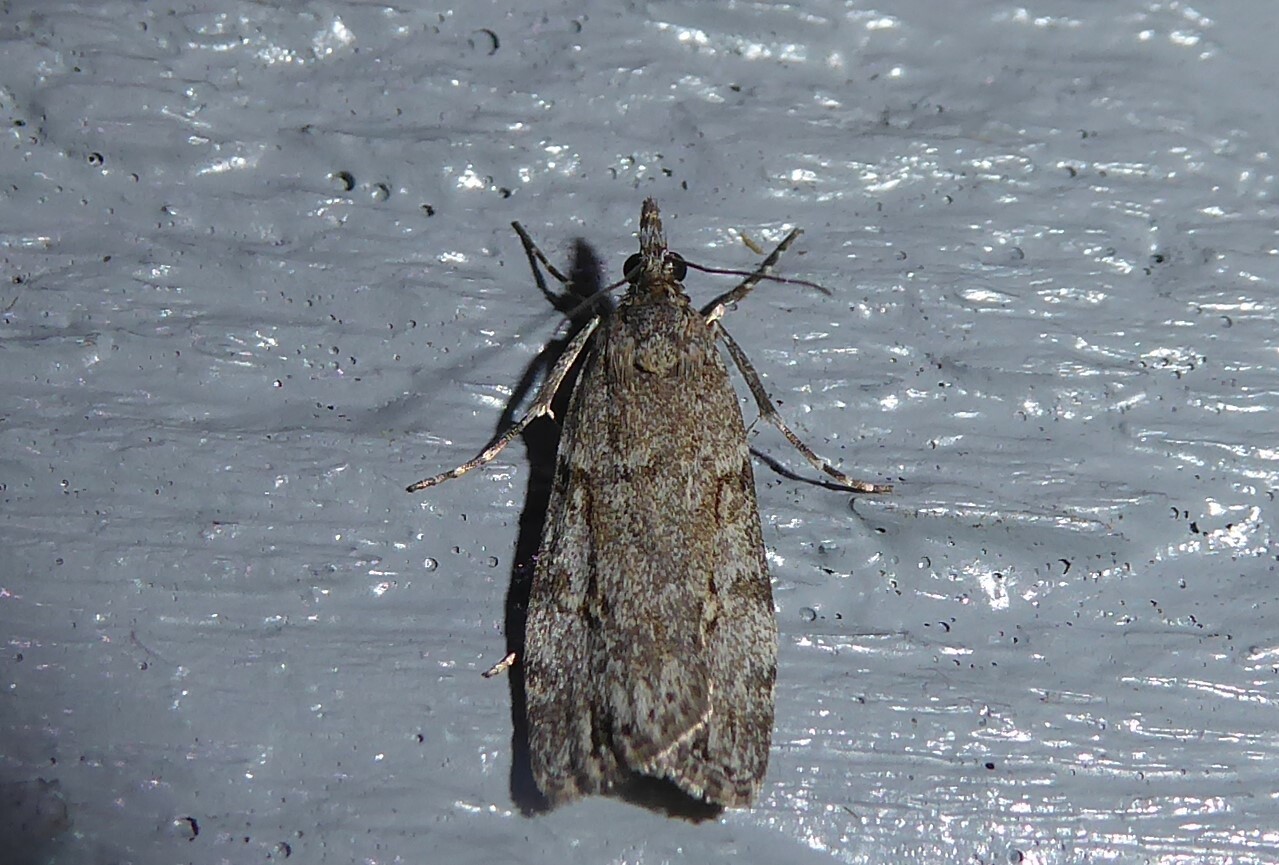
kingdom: Animalia
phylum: Arthropoda
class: Insecta
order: Lepidoptera
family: Crambidae
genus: Eudonia
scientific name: Eudonia cymatias
